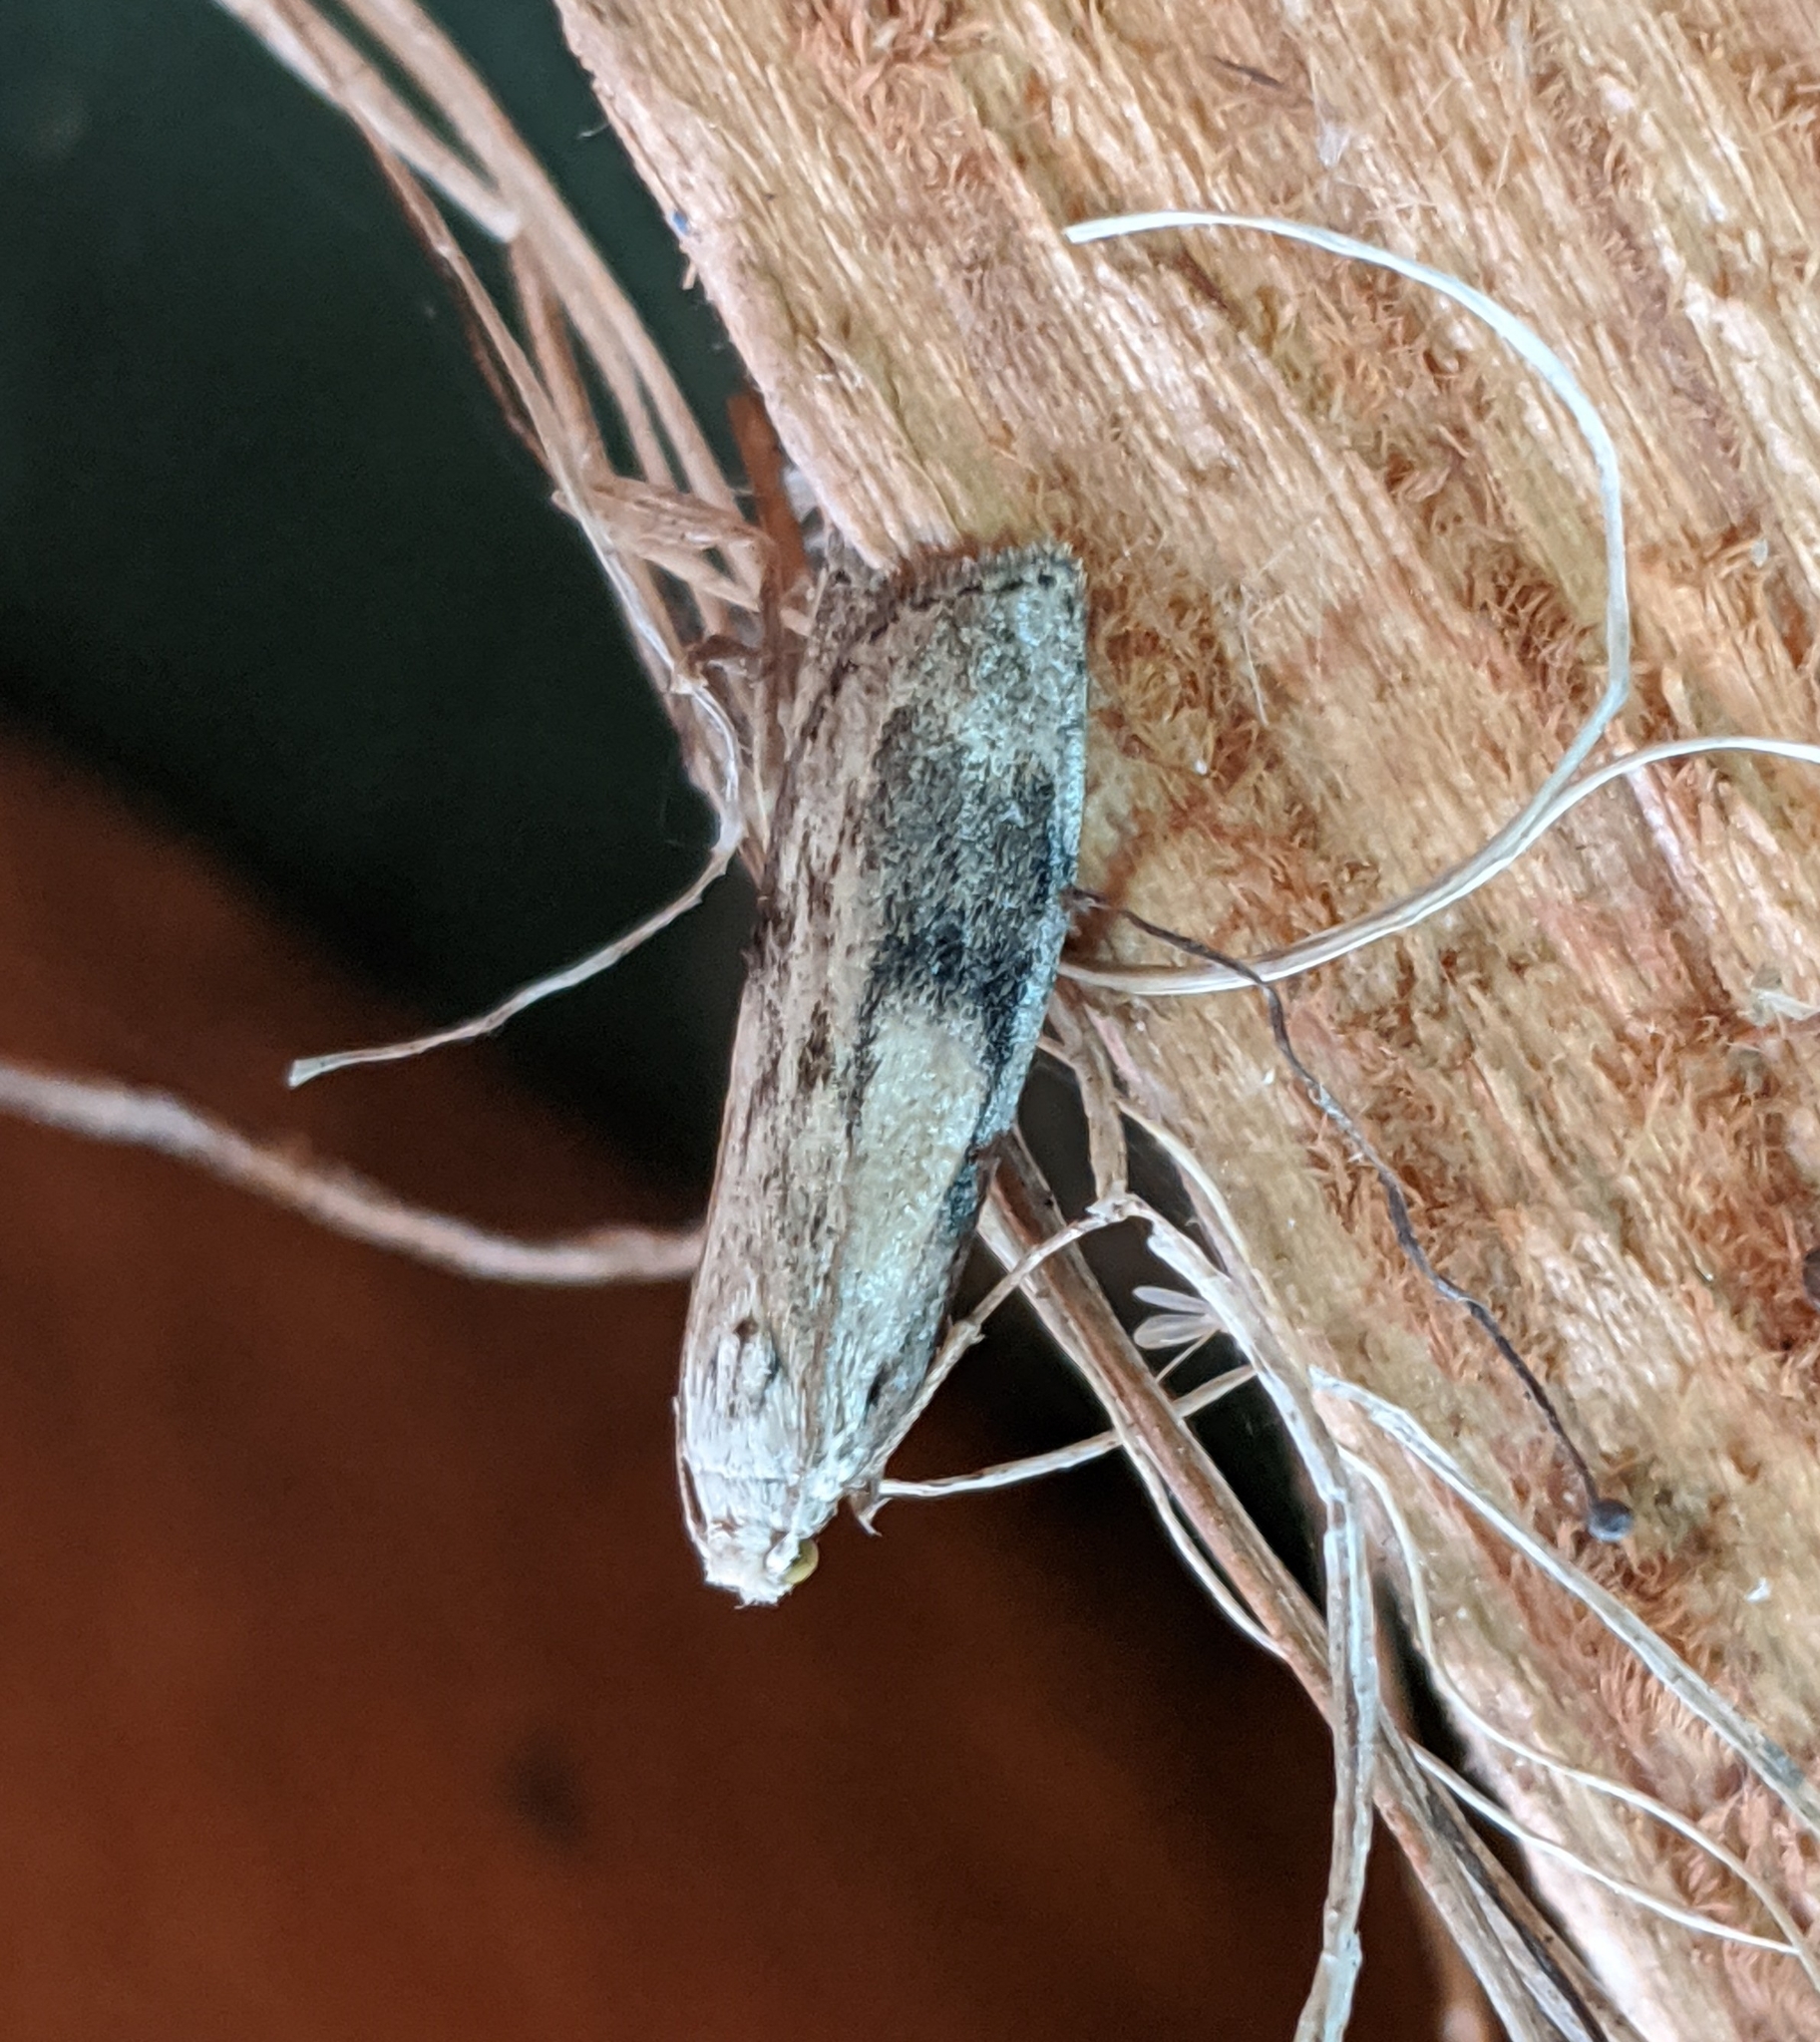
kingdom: Animalia
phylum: Arthropoda
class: Insecta
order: Lepidoptera
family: Pyralidae
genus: Aphomia
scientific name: Aphomia sociella
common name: Bee moth
